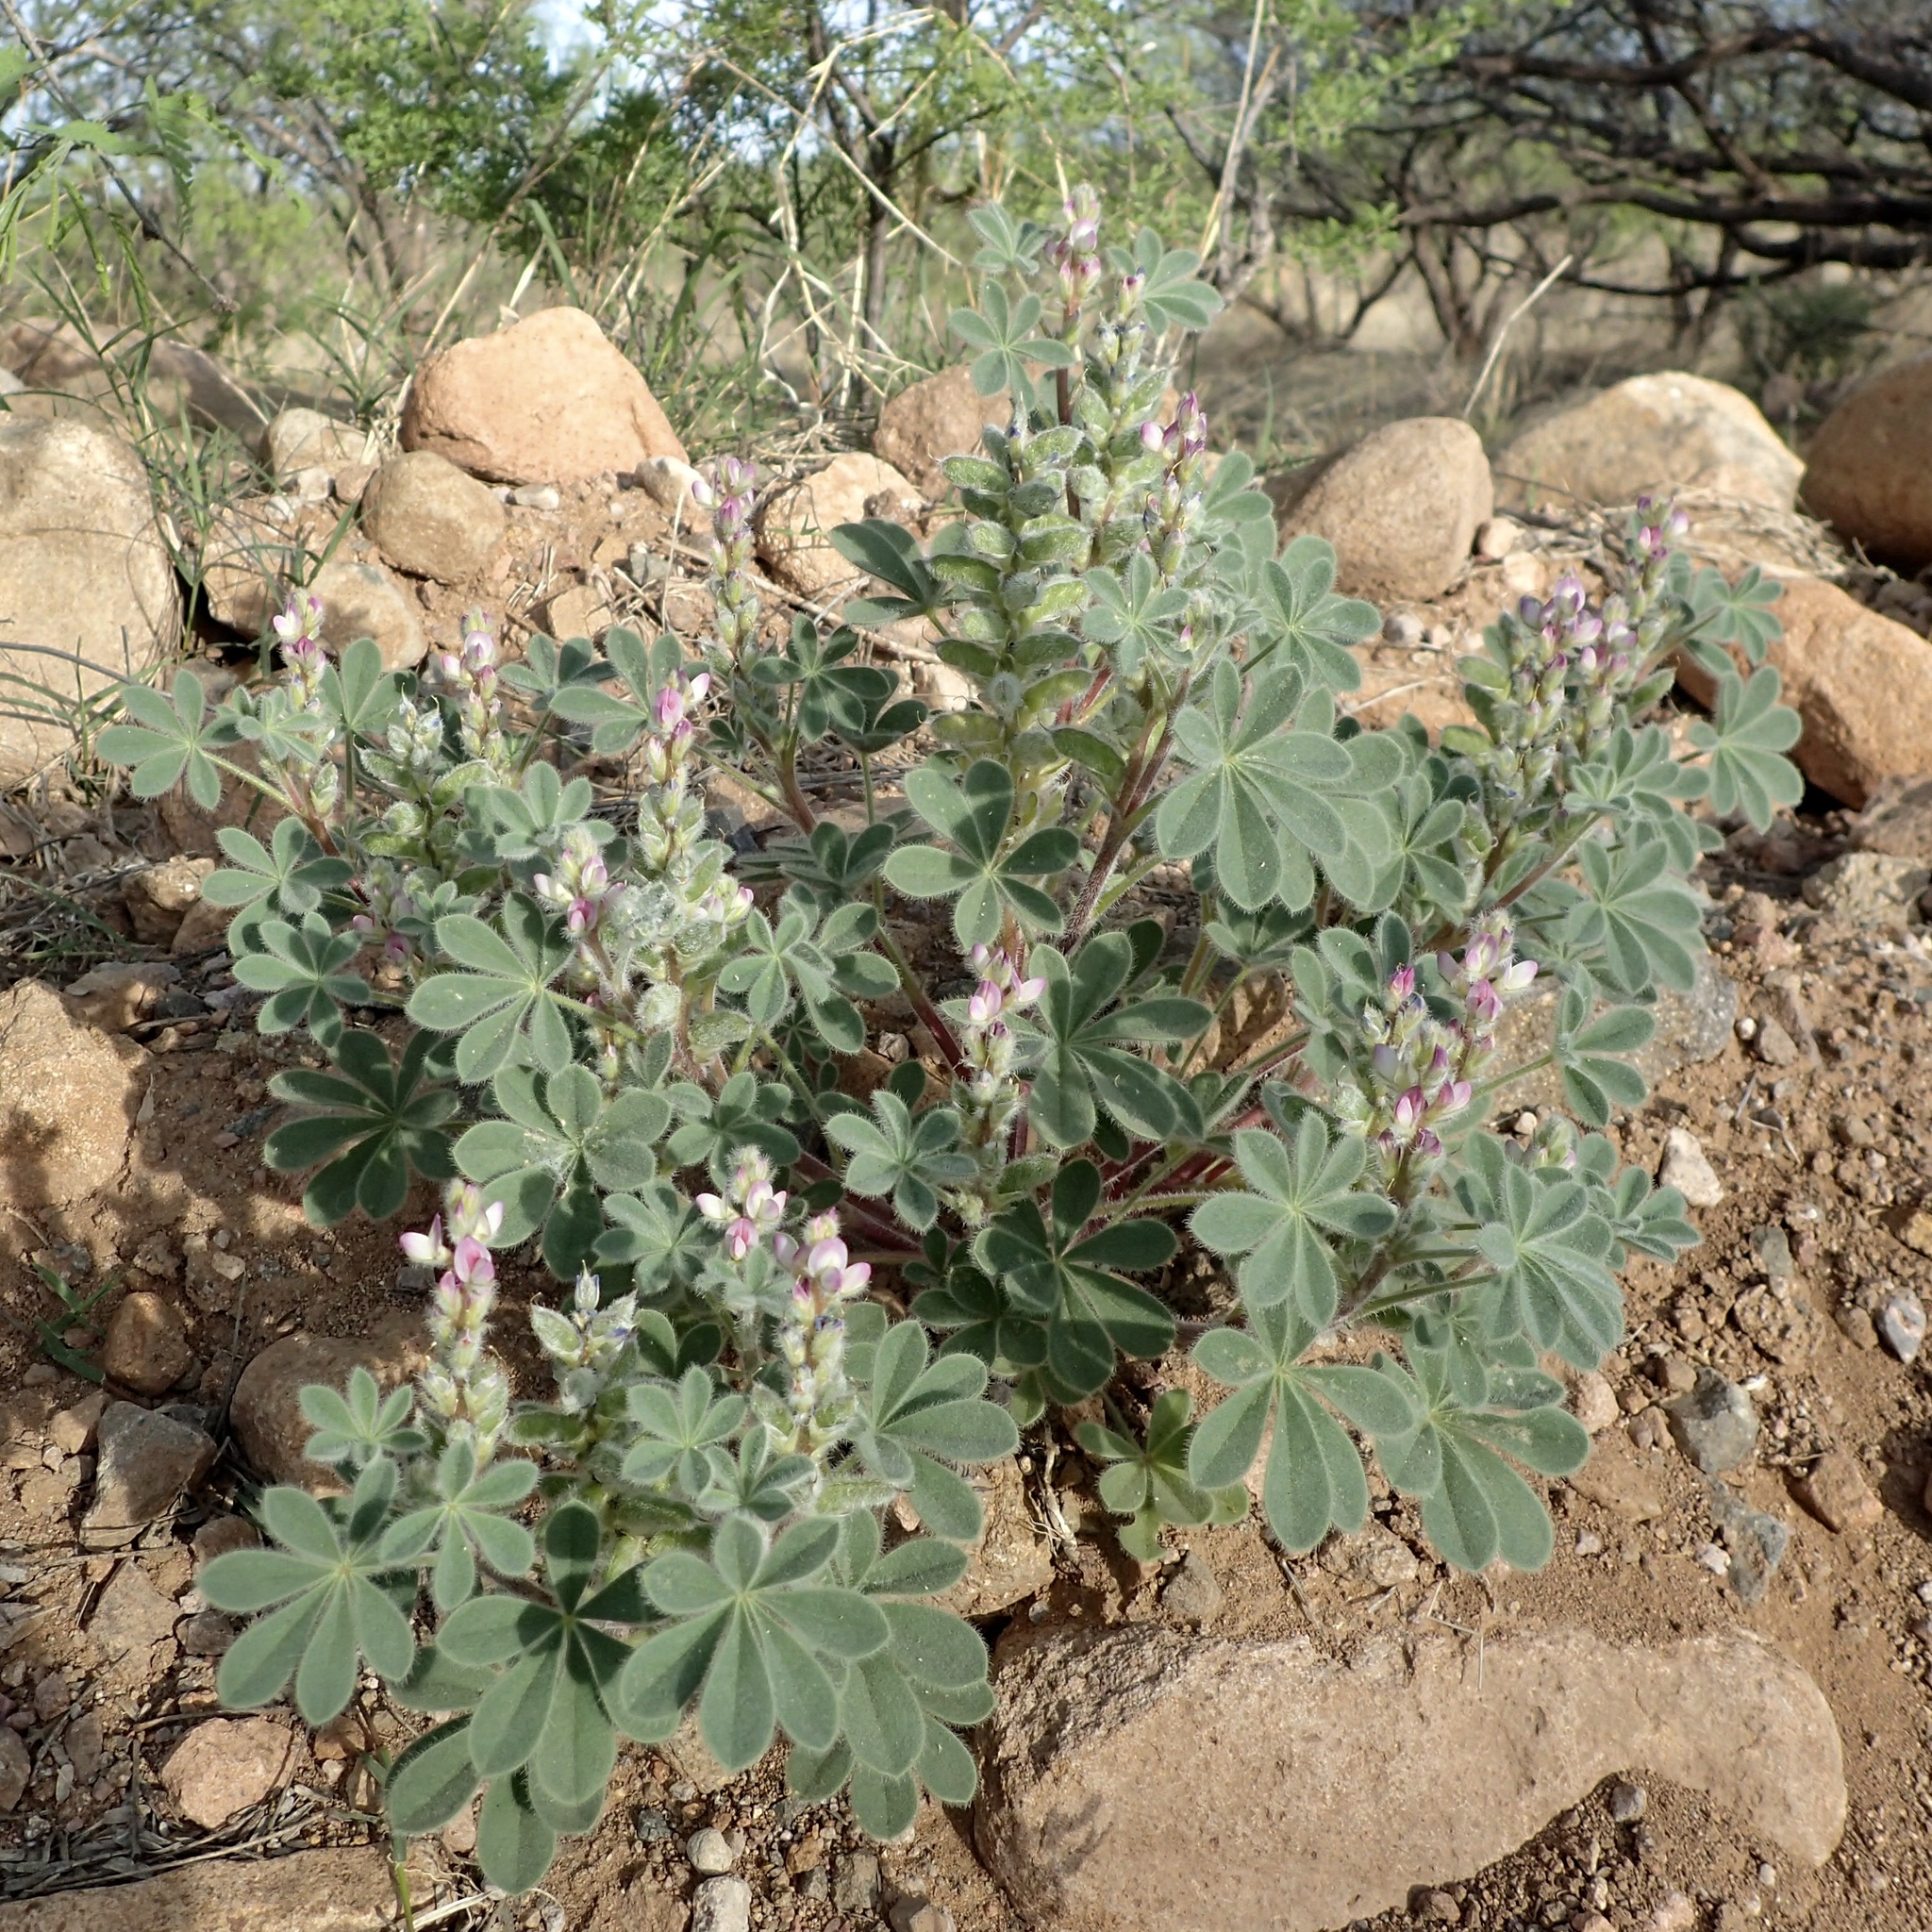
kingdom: Plantae
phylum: Tracheophyta
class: Magnoliopsida
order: Fabales
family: Fabaceae
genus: Lupinus
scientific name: Lupinus concinnus
